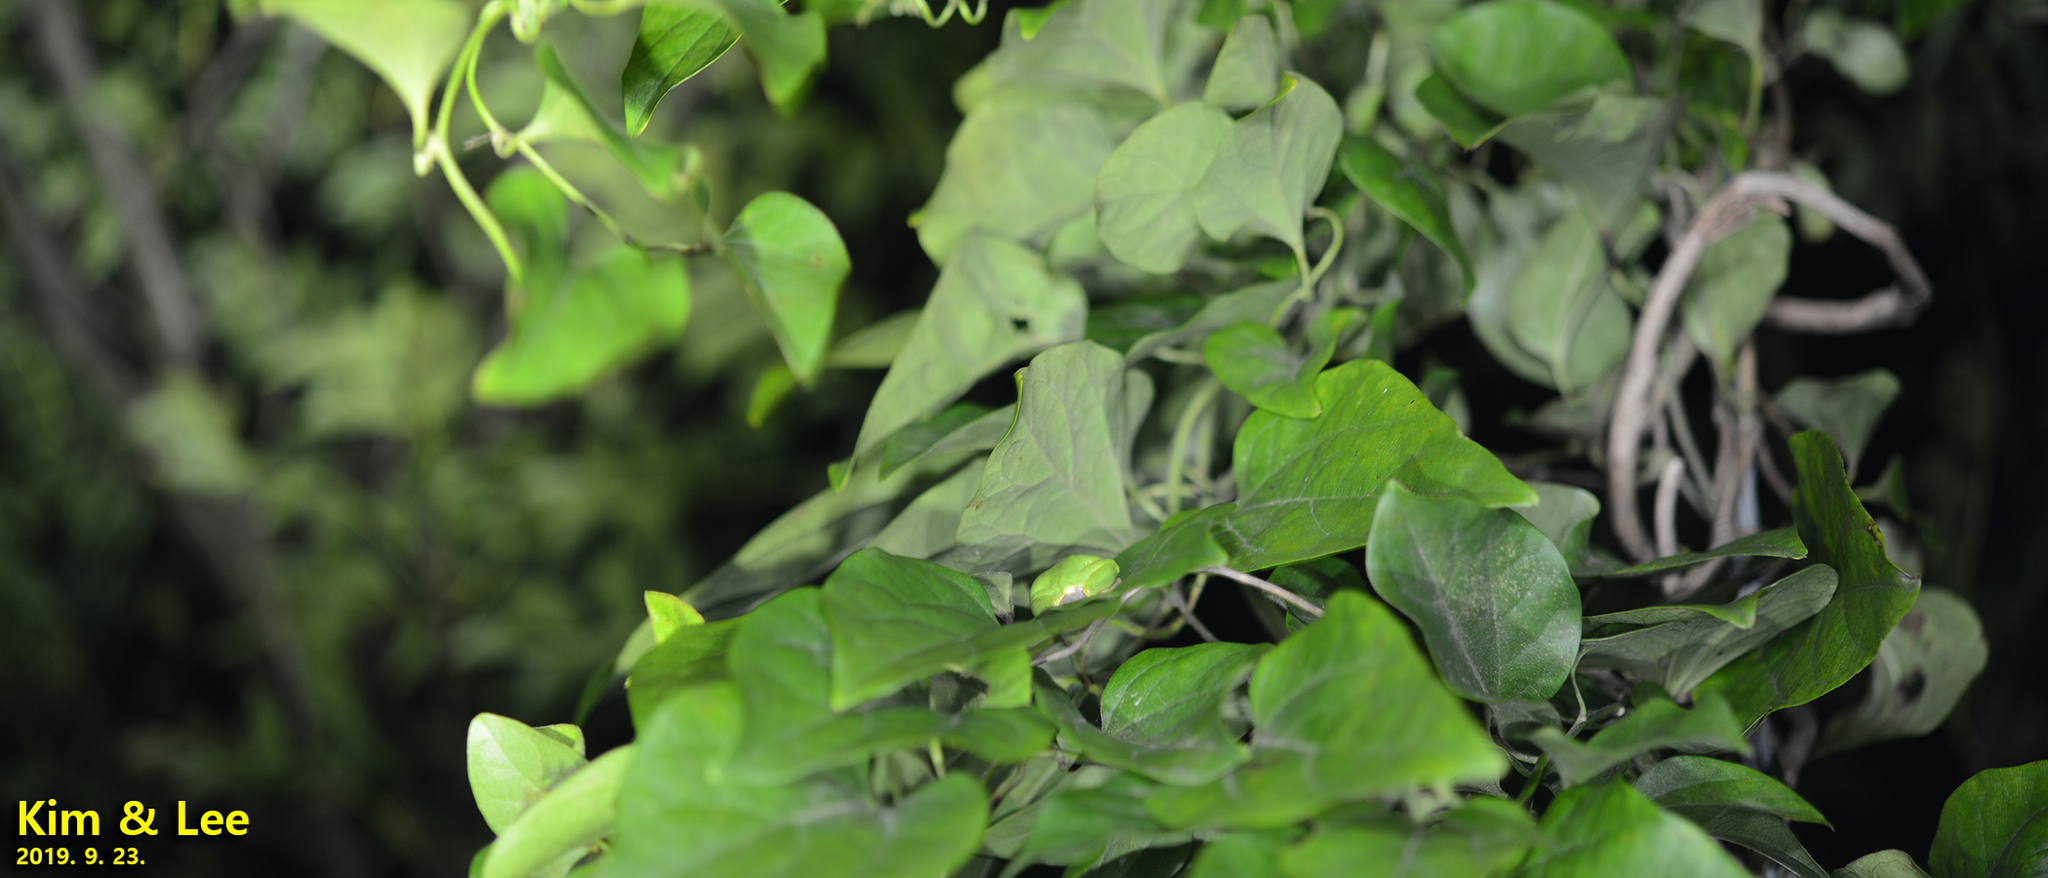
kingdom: Animalia
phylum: Chordata
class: Amphibia
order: Anura
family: Hylidae
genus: Dryophytes
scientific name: Dryophytes japonicus
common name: Japanese treefrog
